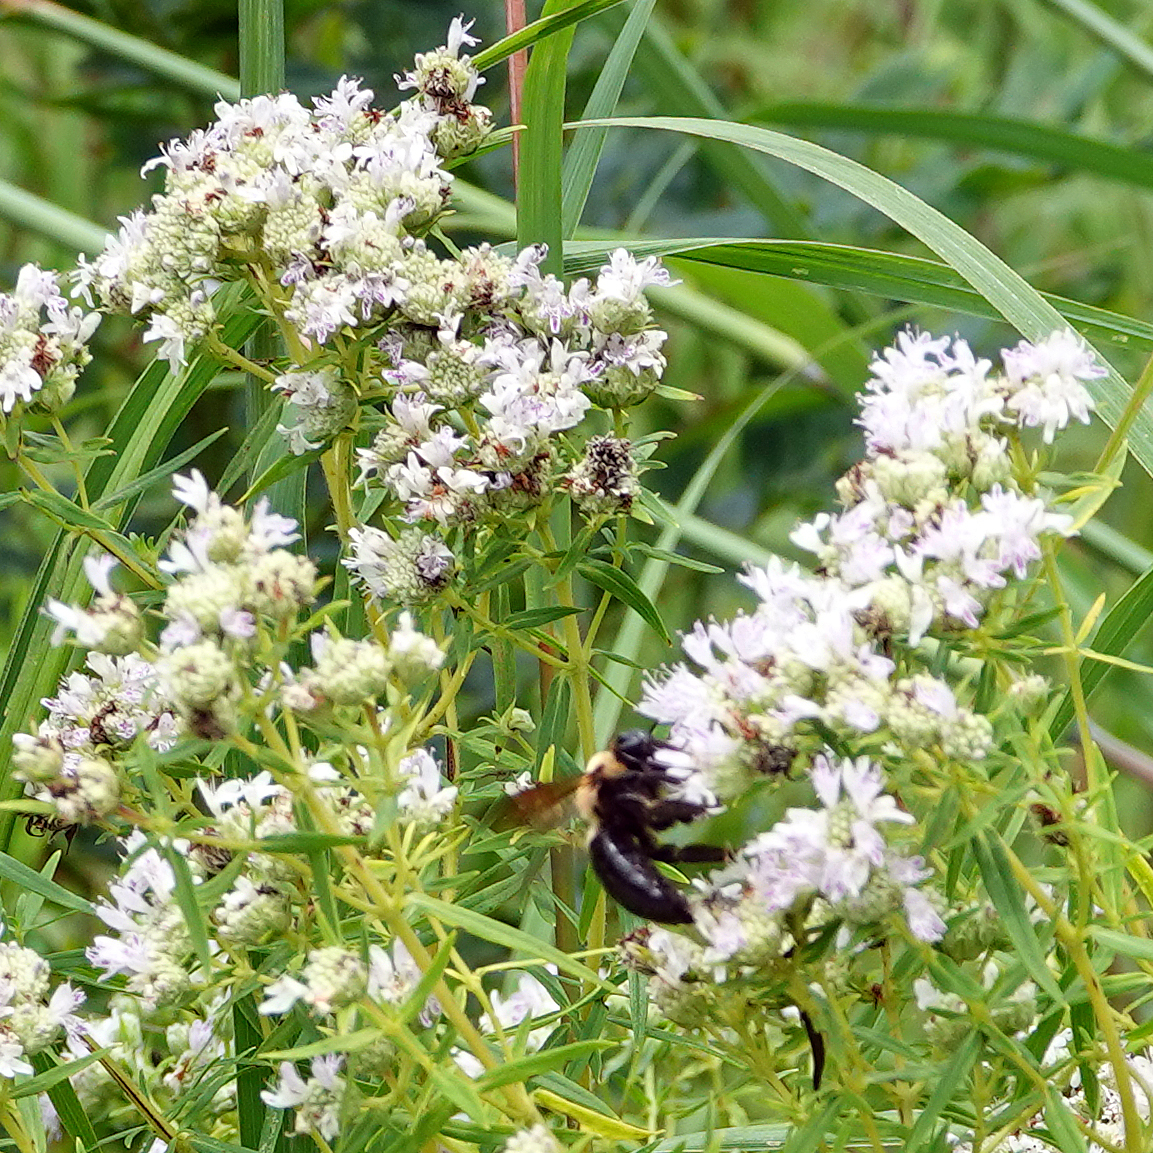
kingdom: Animalia
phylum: Arthropoda
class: Insecta
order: Hymenoptera
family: Apidae
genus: Xylocopa
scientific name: Xylocopa virginica
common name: Carpenter bee
